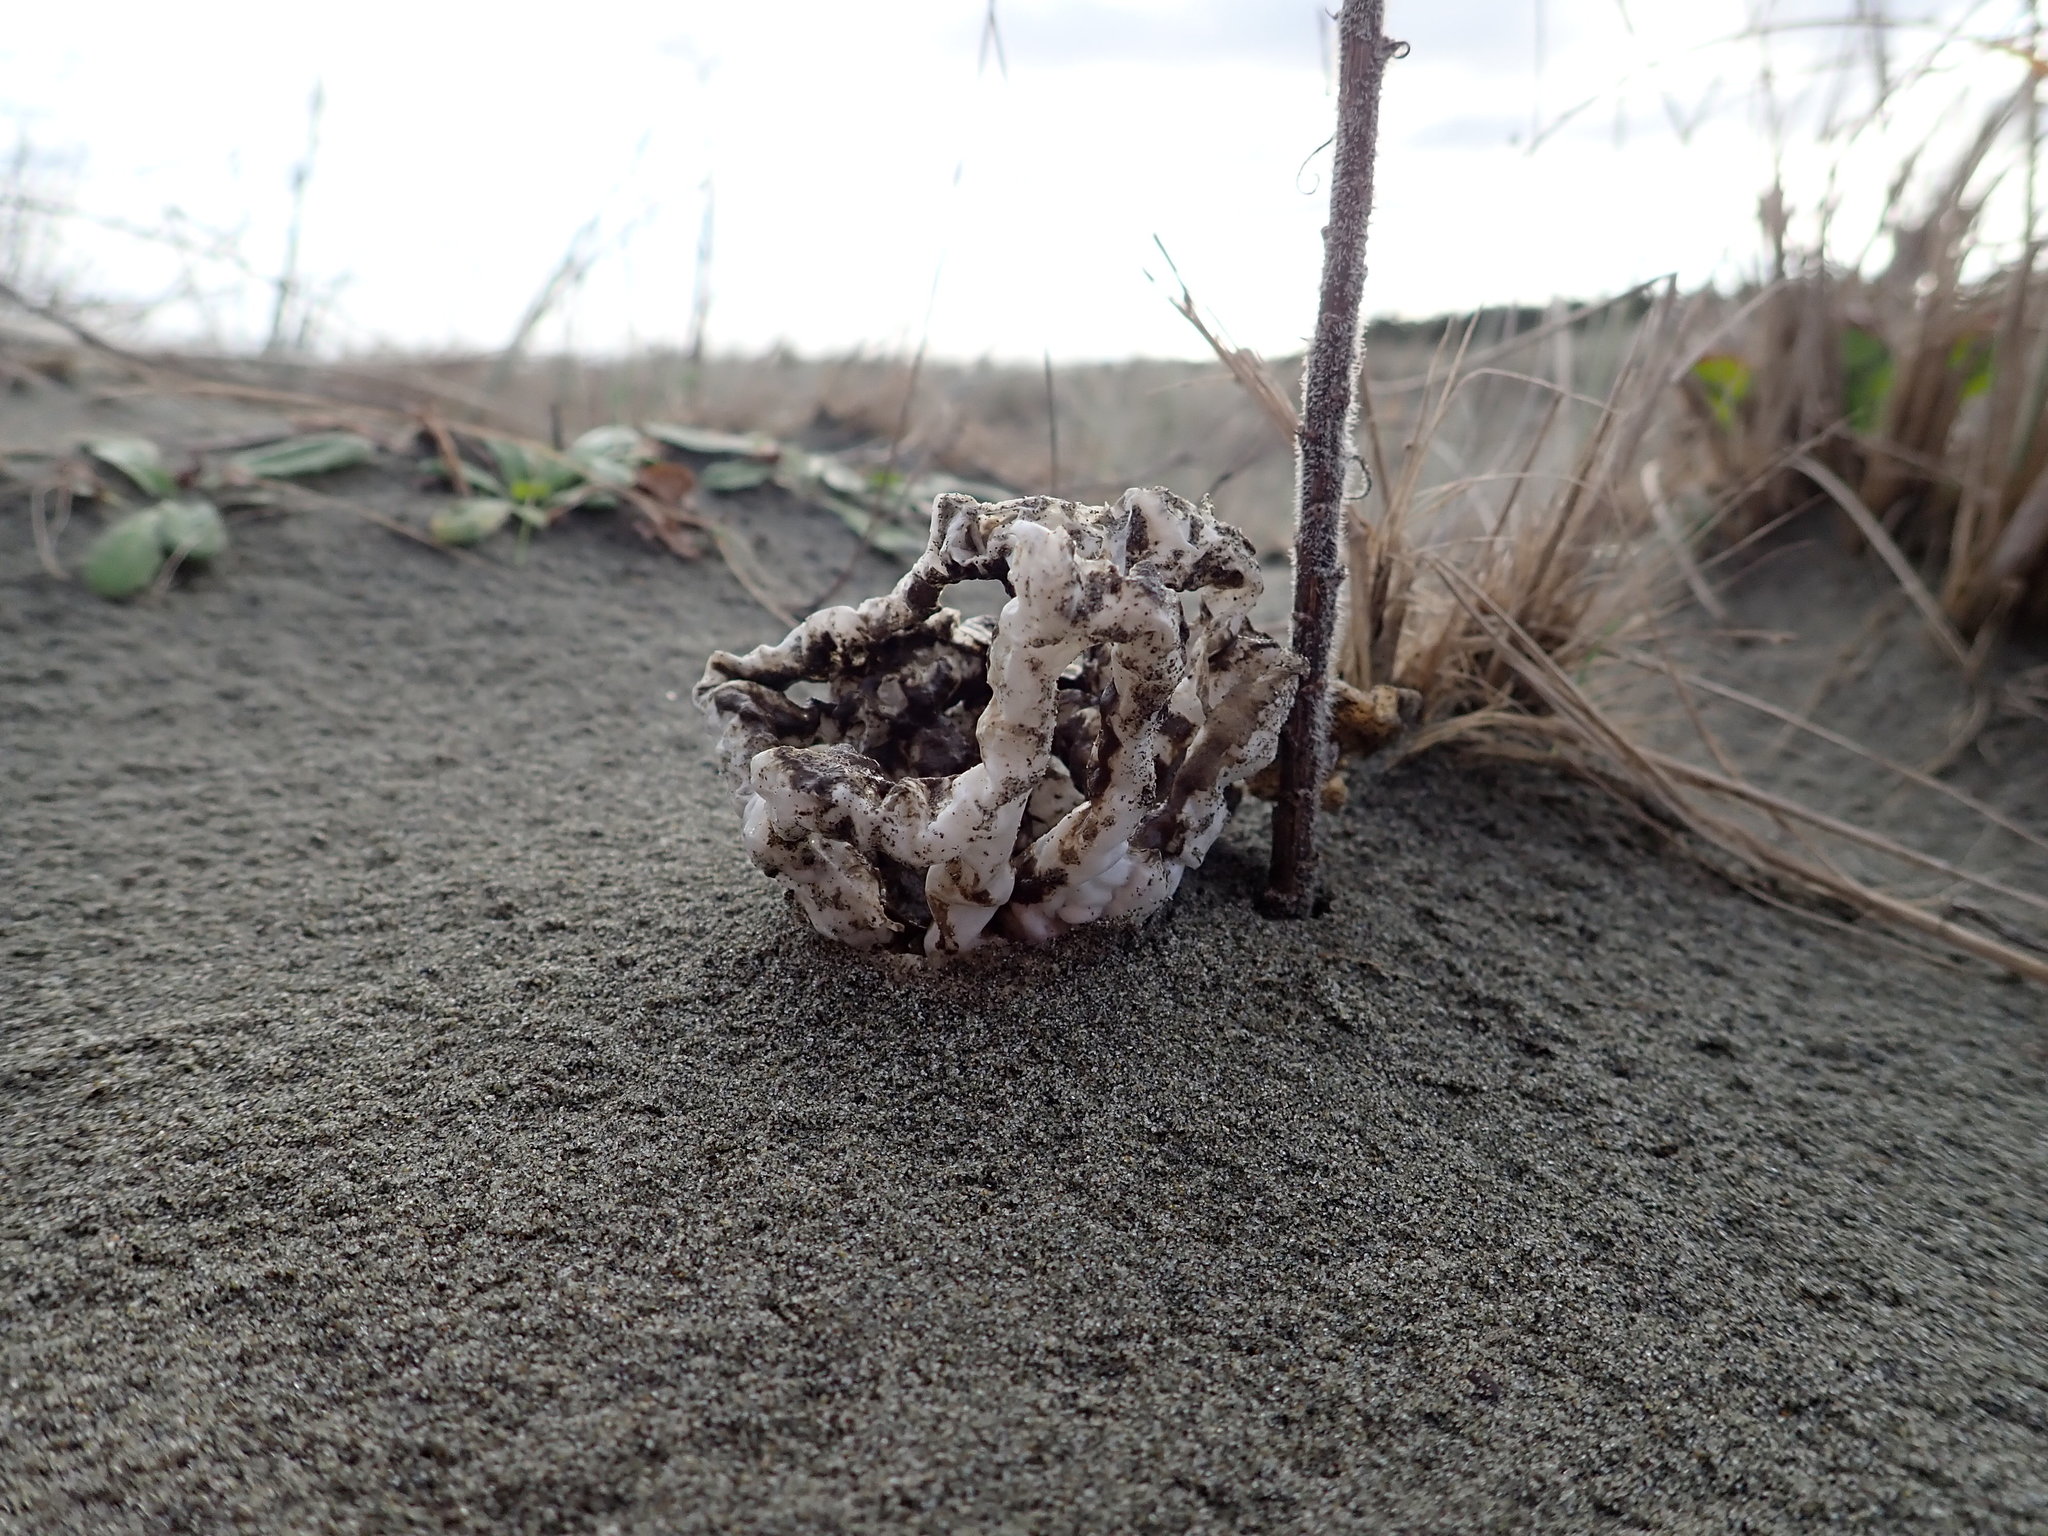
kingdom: Fungi
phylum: Basidiomycota
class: Agaricomycetes
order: Phallales
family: Phallaceae
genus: Ileodictyon
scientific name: Ileodictyon cibarium
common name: Basket fungus
